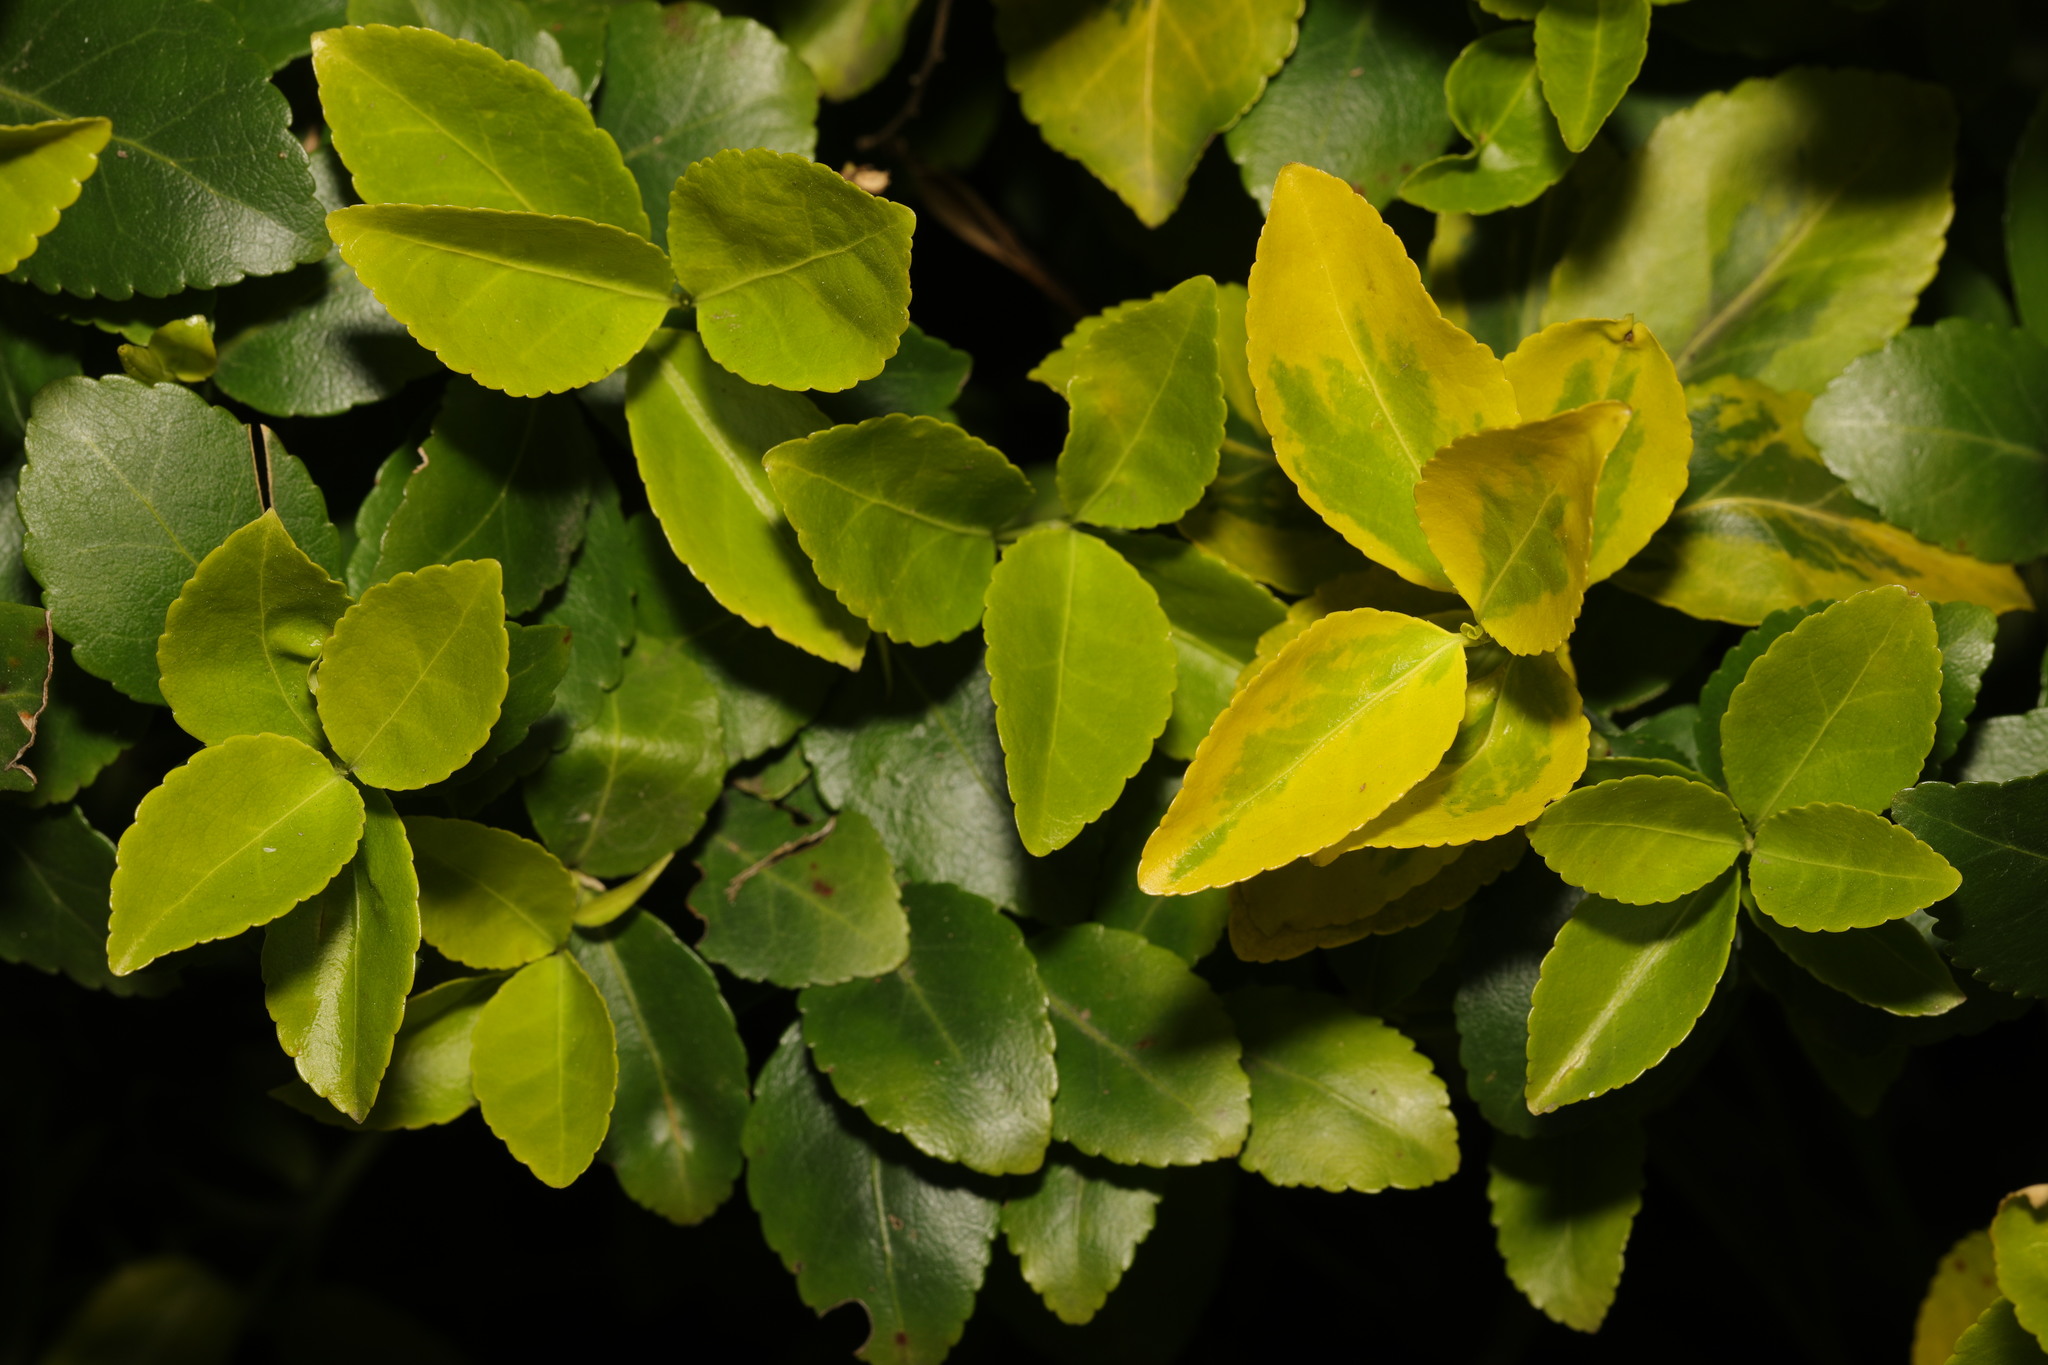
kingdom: Plantae
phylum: Tracheophyta
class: Magnoliopsida
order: Celastrales
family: Celastraceae
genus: Euonymus
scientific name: Euonymus japonicus
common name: Japanese spindletree
